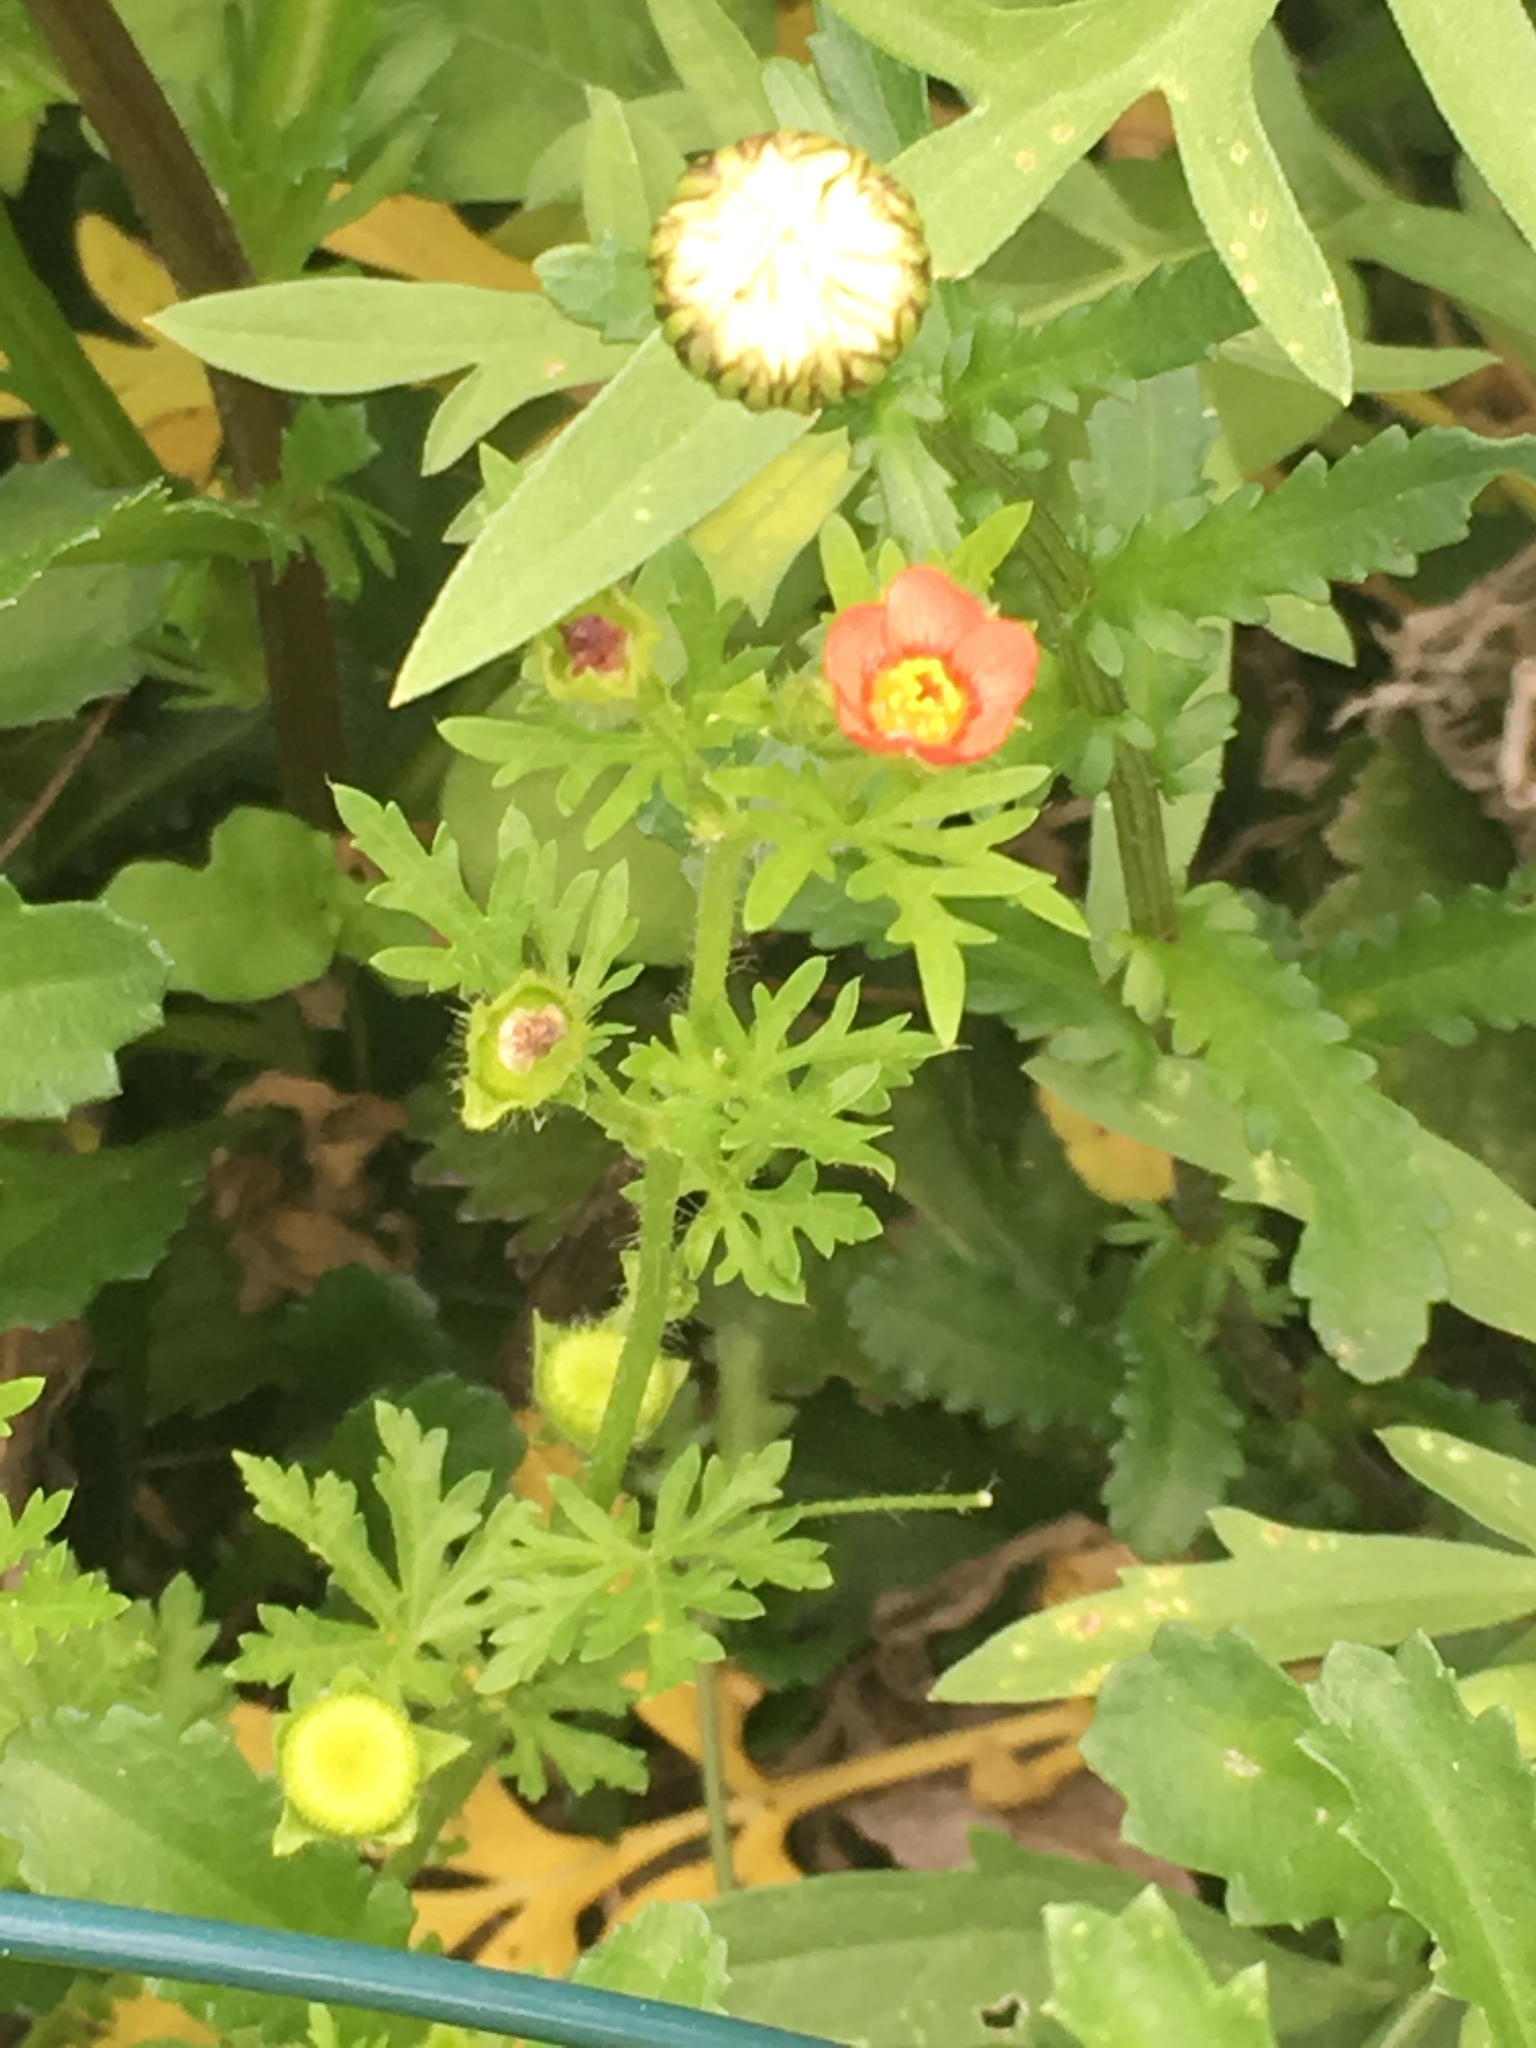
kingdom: Plantae
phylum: Tracheophyta
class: Magnoliopsida
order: Malvales
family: Malvaceae
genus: Modiola
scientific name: Modiola caroliniana
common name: Carolina bristlemallow
